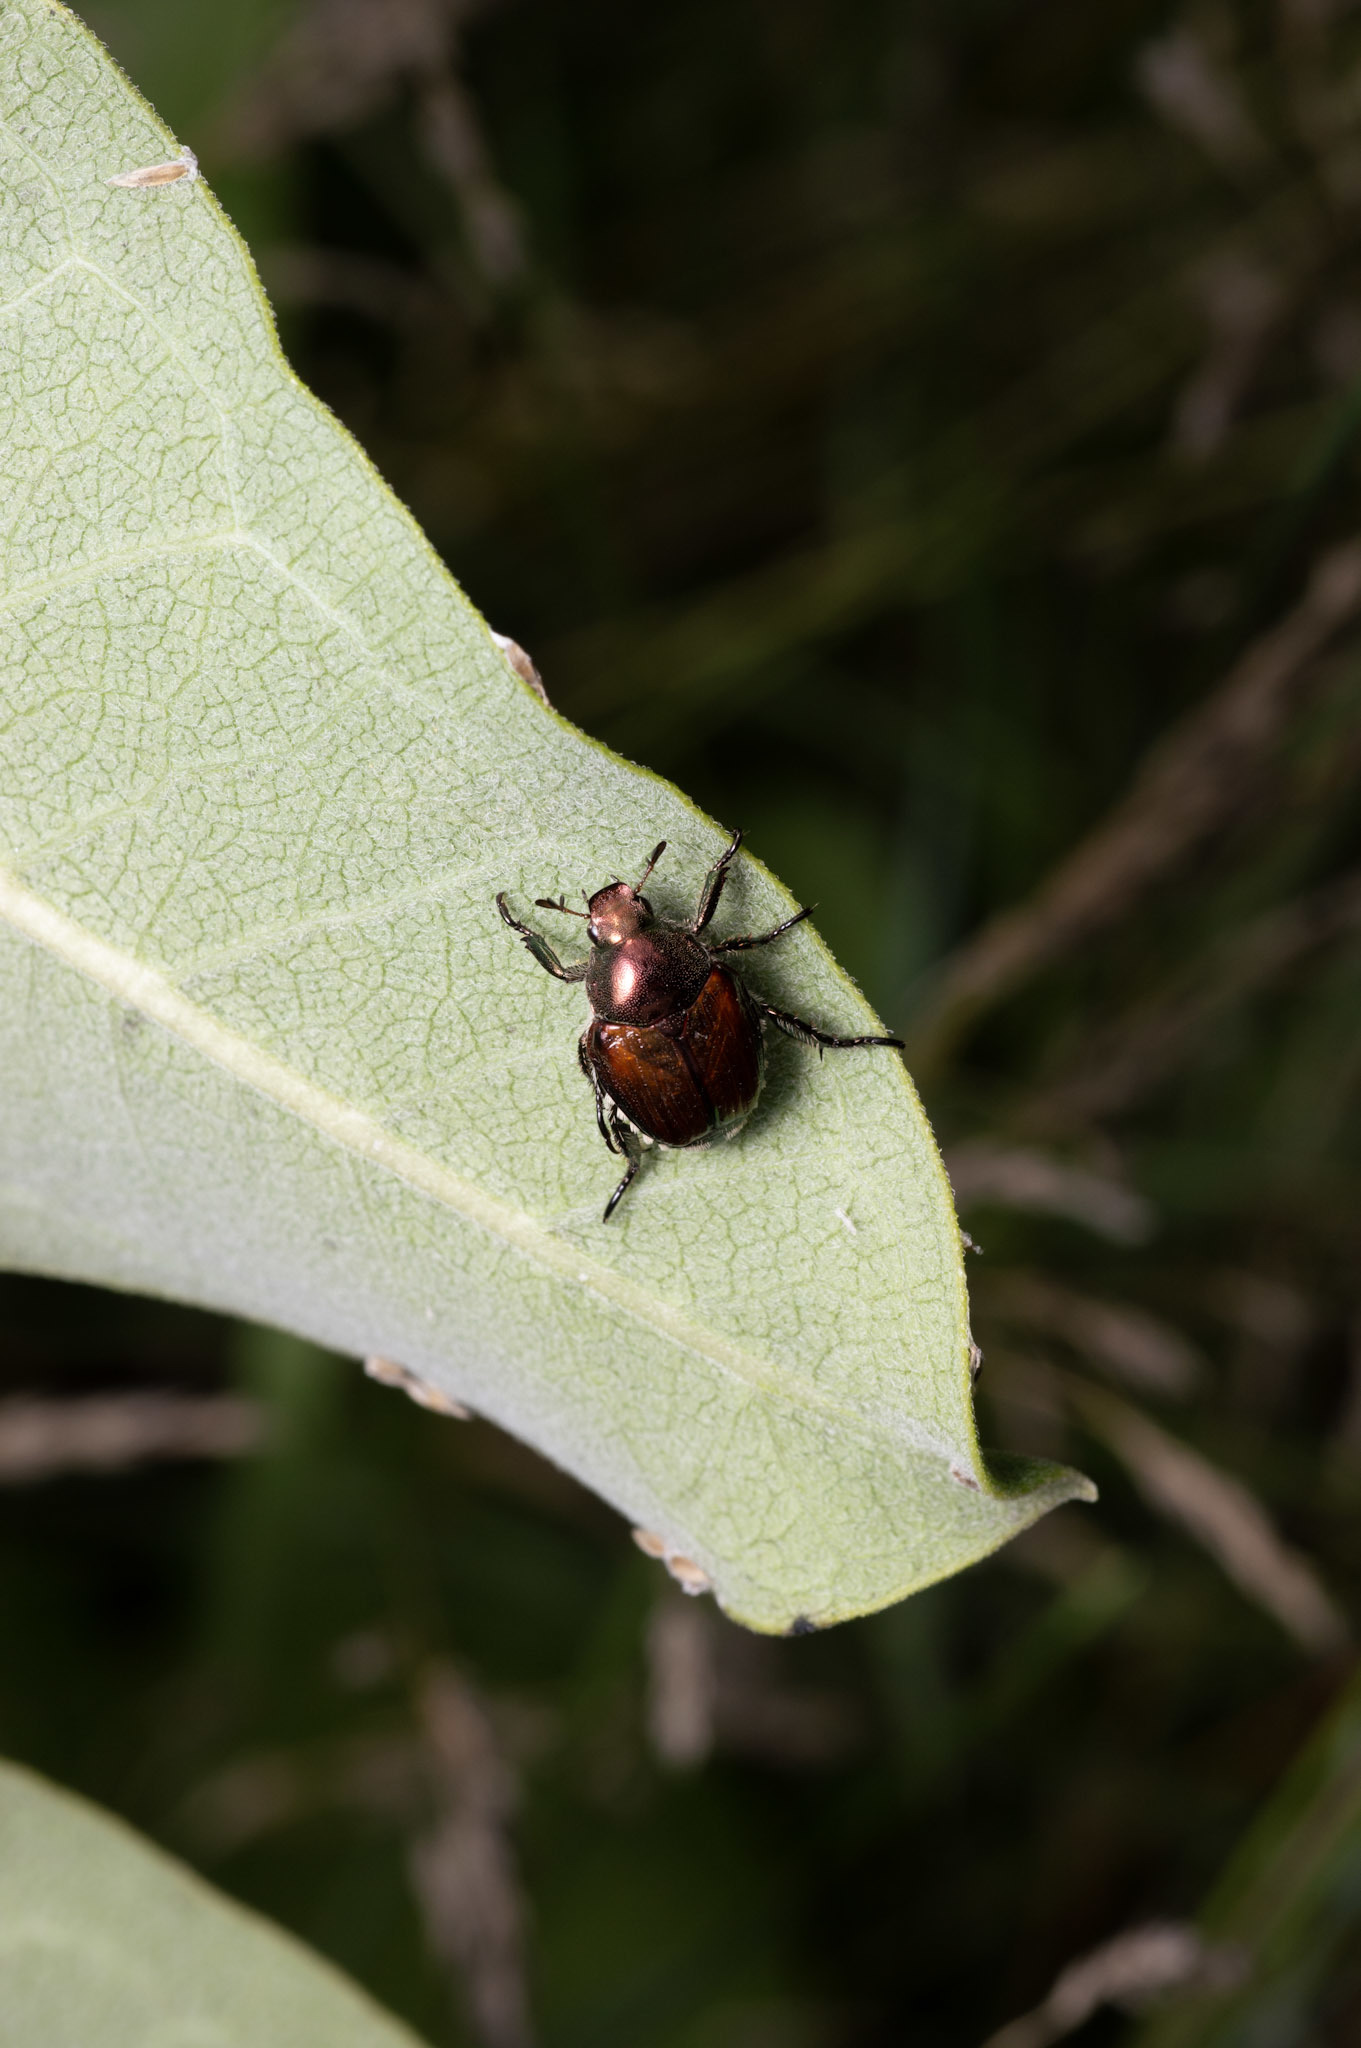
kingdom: Animalia
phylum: Arthropoda
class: Insecta
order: Coleoptera
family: Scarabaeidae
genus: Popillia
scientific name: Popillia japonica
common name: Japanese beetle
